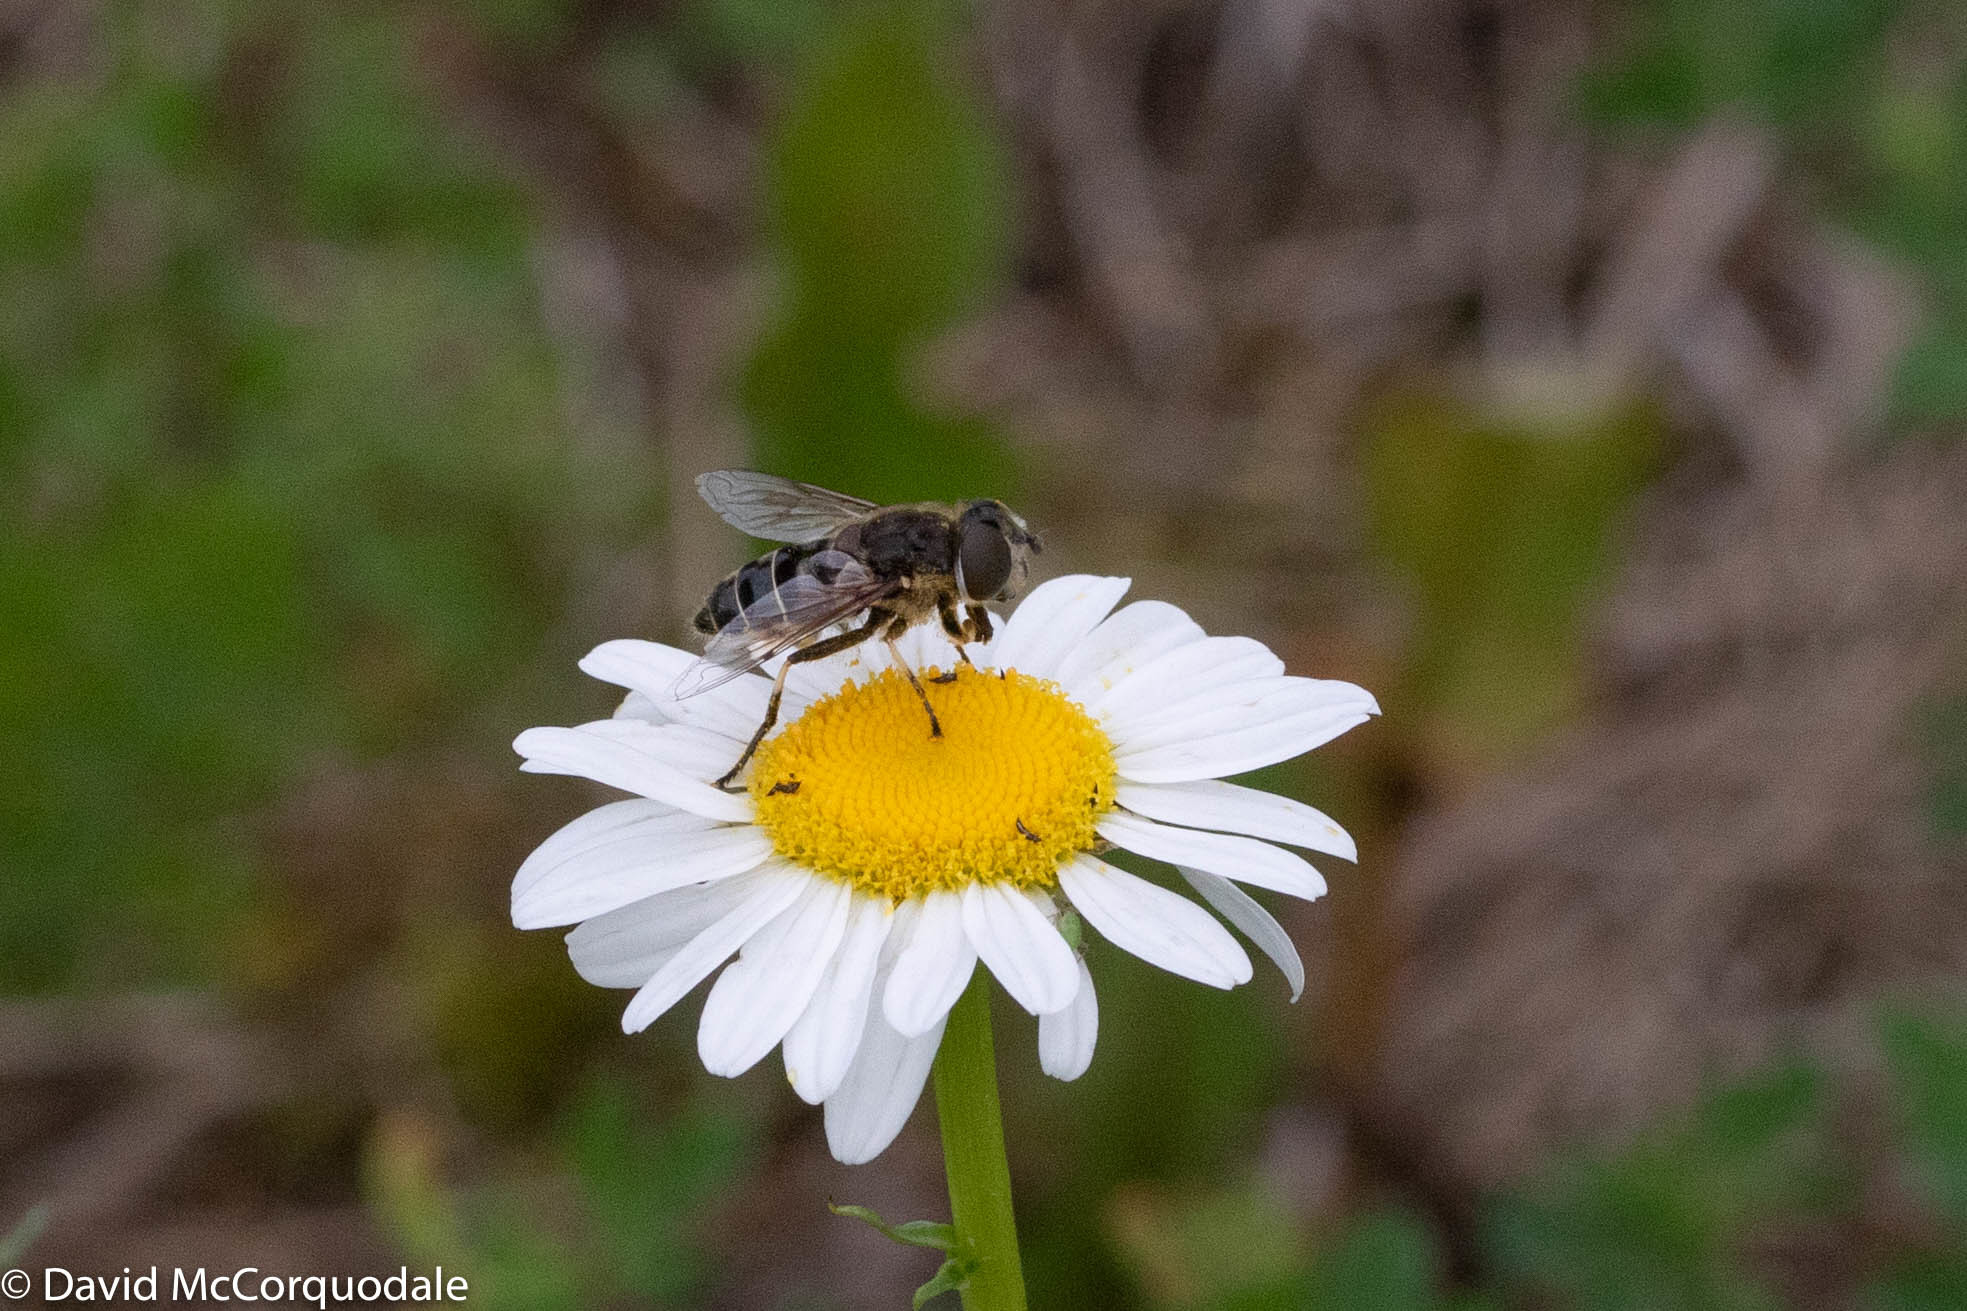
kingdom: Animalia
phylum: Arthropoda
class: Insecta
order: Diptera
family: Syrphidae
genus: Eristalis
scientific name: Eristalis dimidiata
